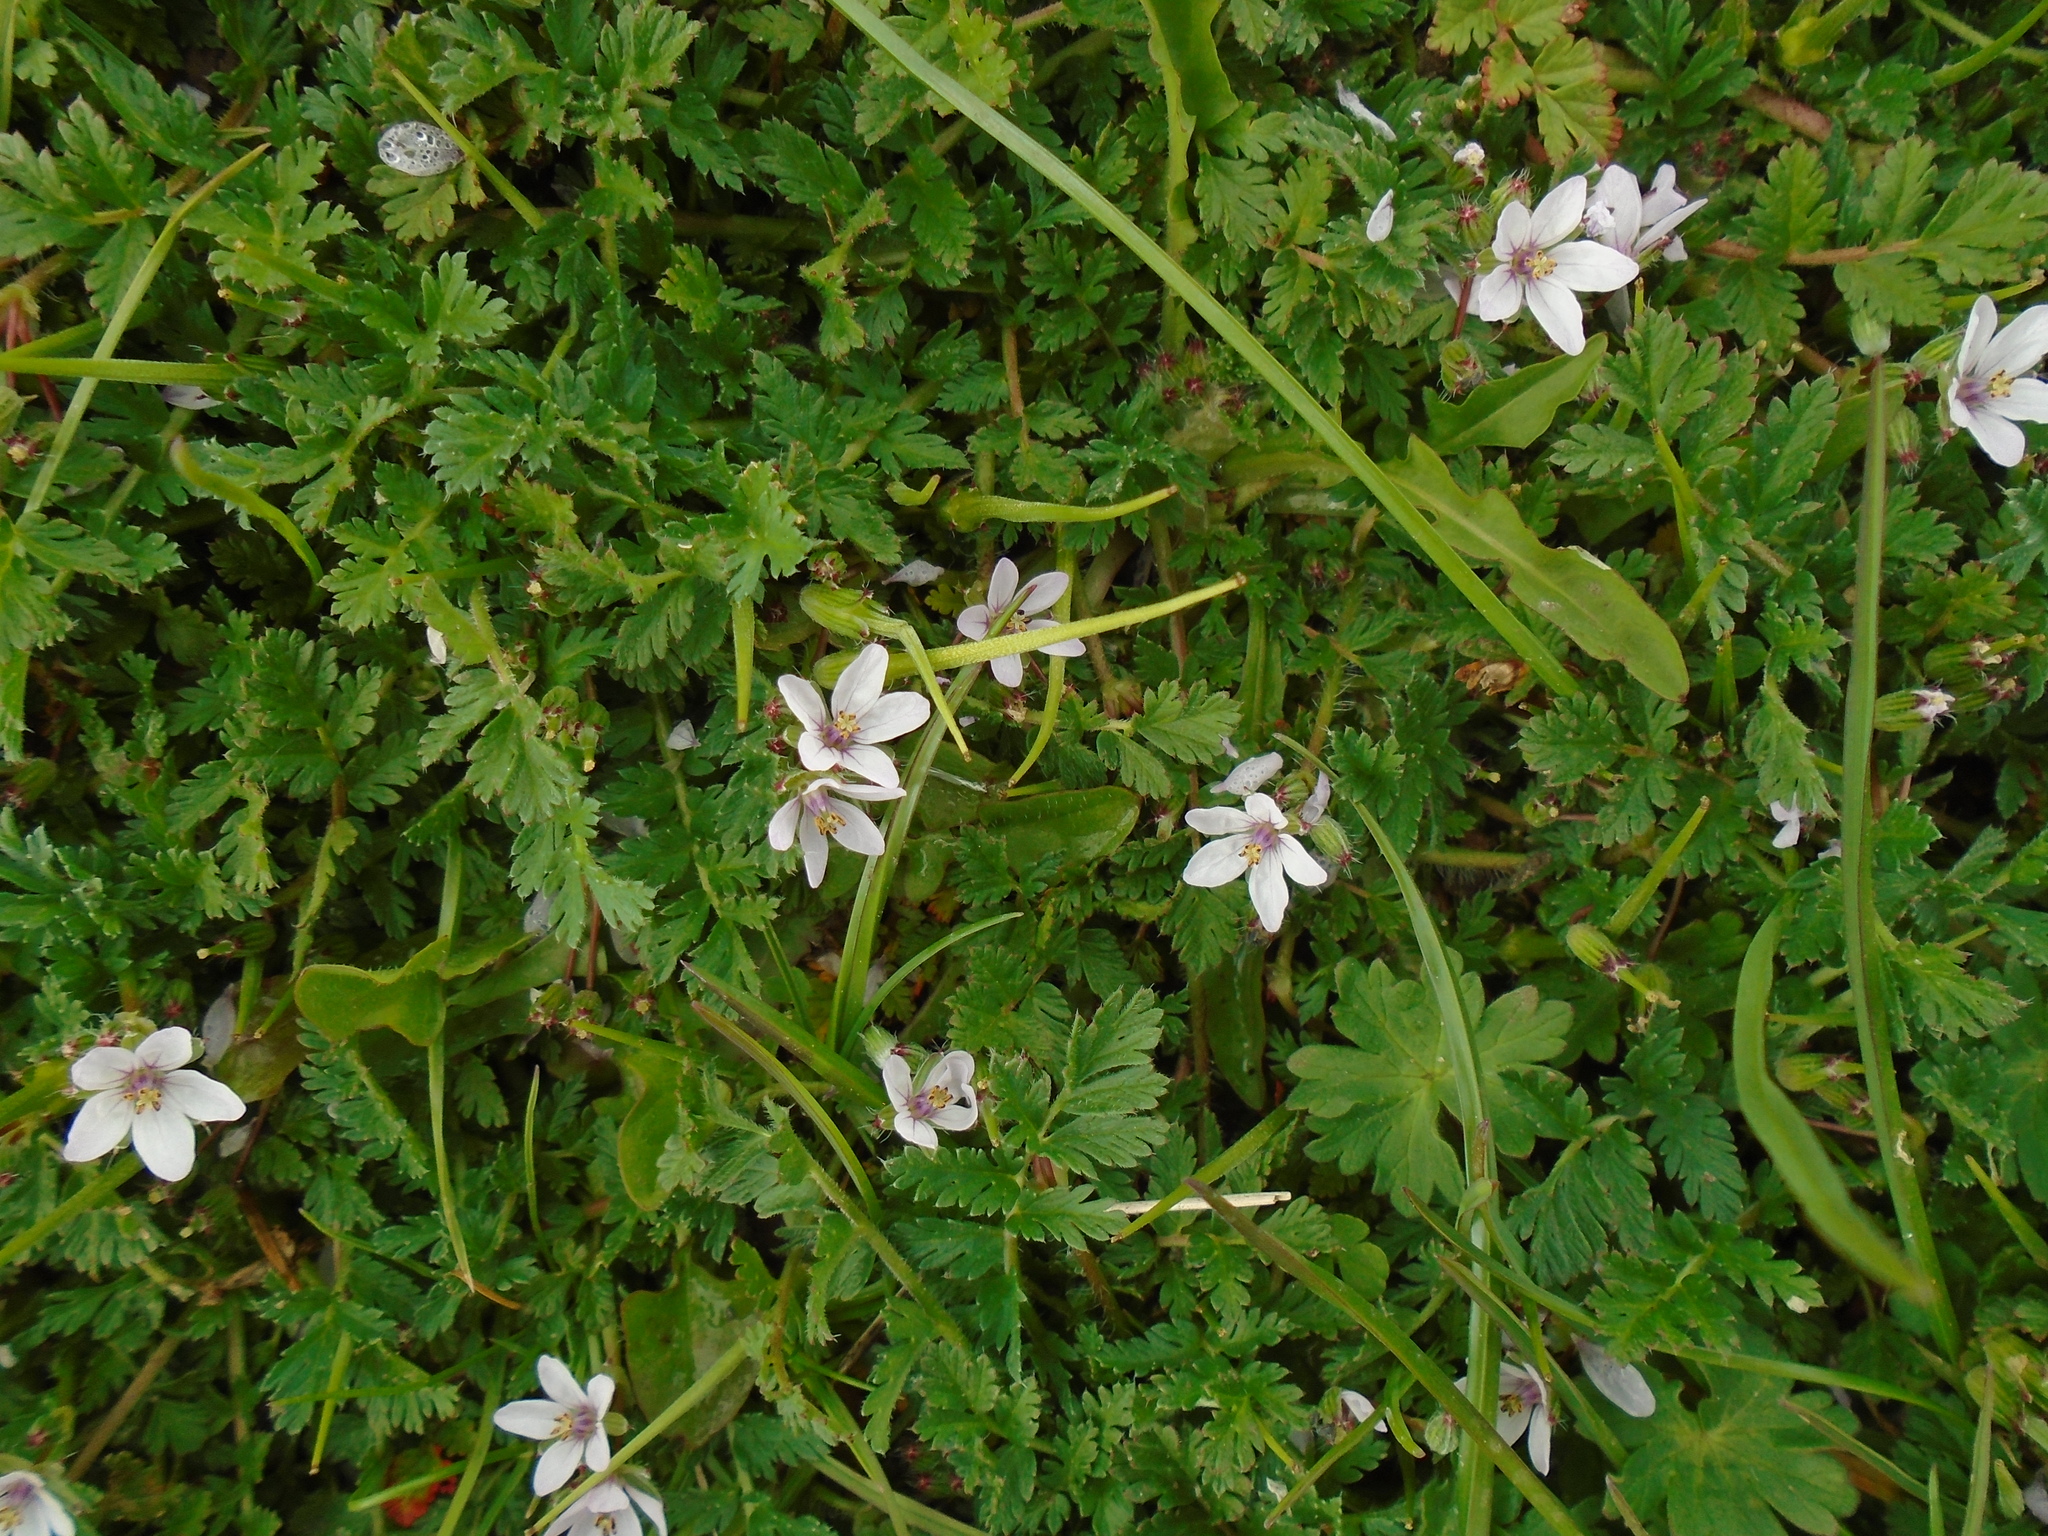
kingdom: Plantae
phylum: Tracheophyta
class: Magnoliopsida
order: Geraniales
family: Geraniaceae
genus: Erodium
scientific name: Erodium cicutarium
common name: Common stork's-bill
